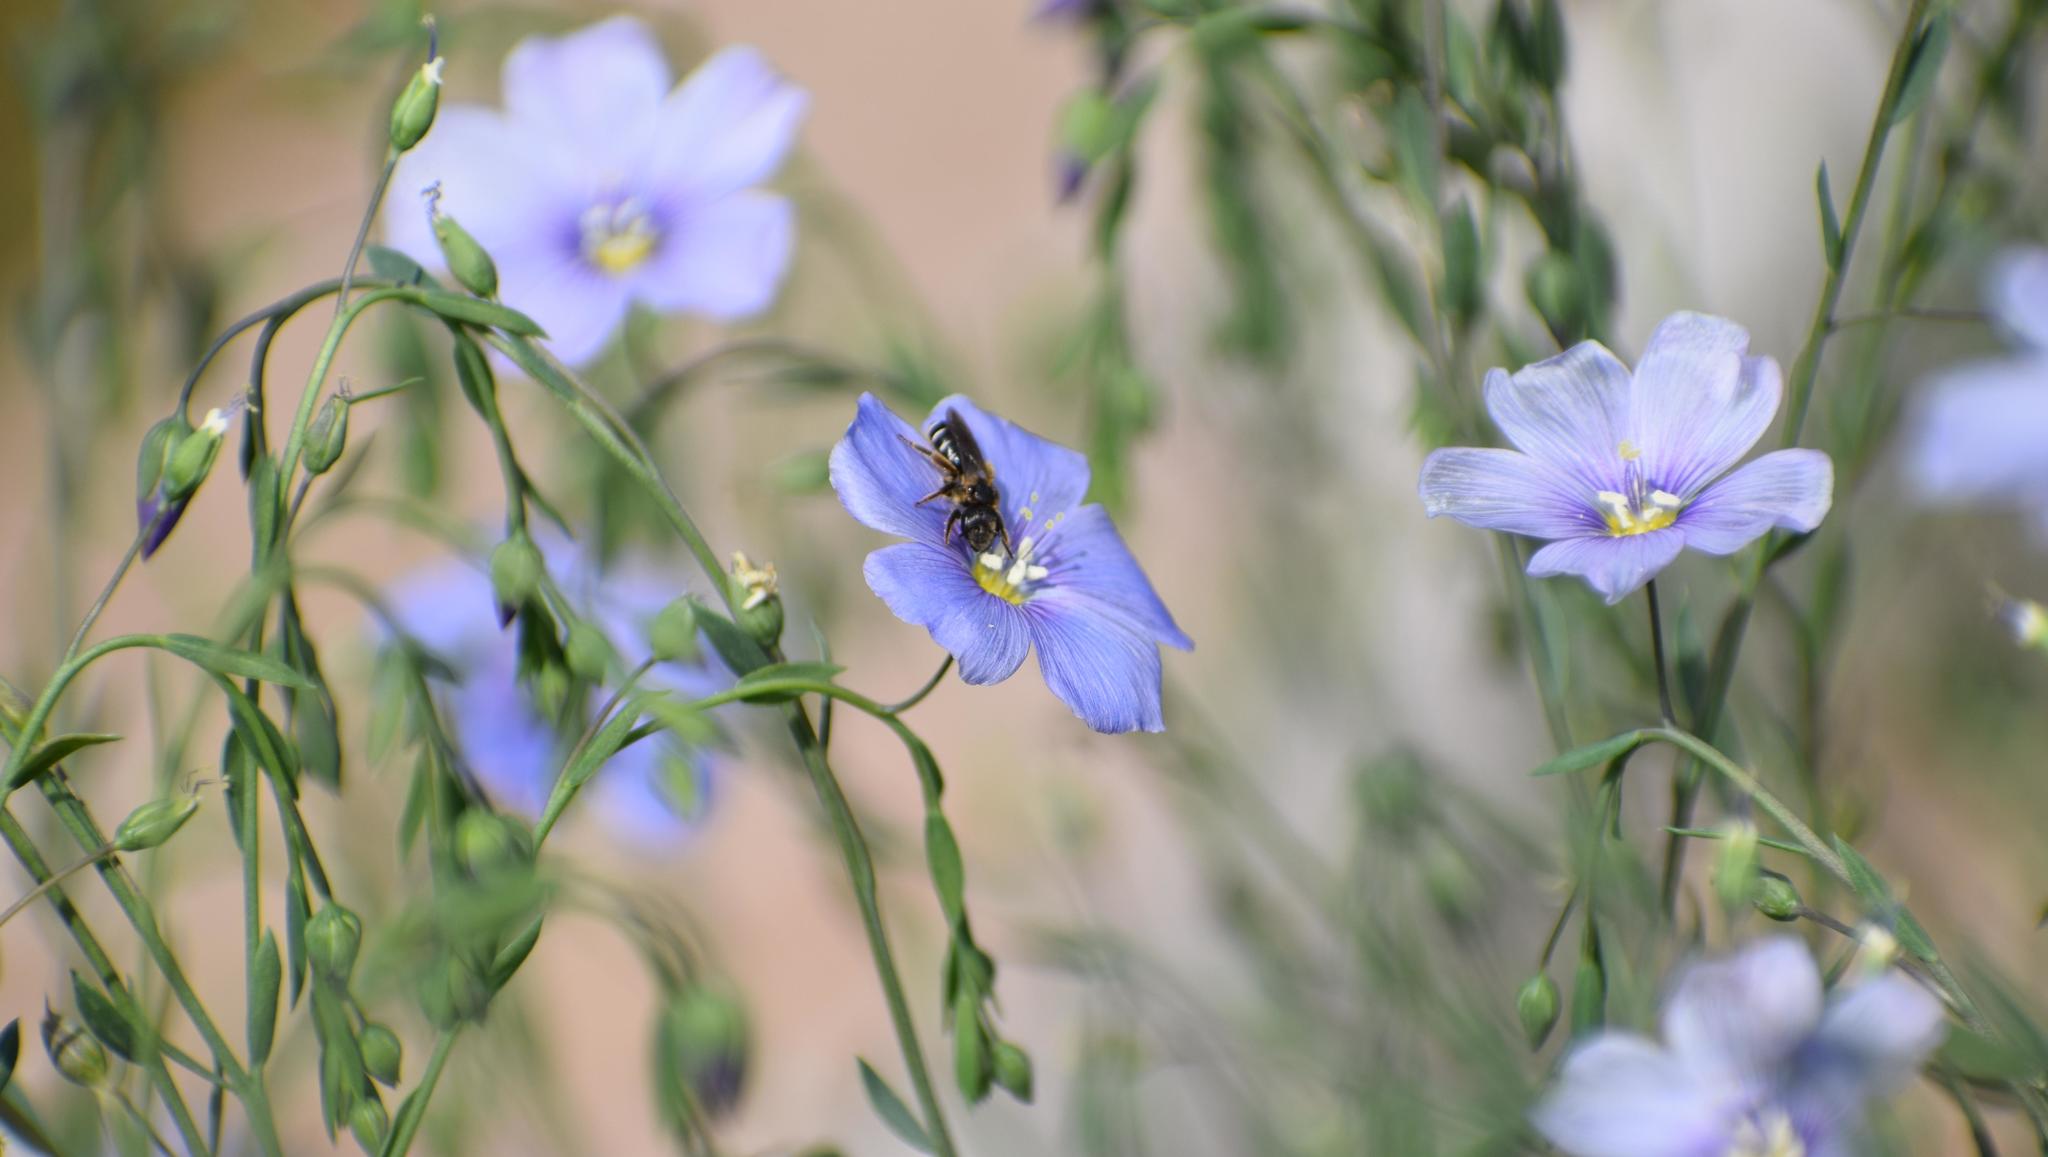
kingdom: Animalia
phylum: Arthropoda
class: Insecta
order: Hymenoptera
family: Halictidae
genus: Tytthalictus
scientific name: Tytthalictus
